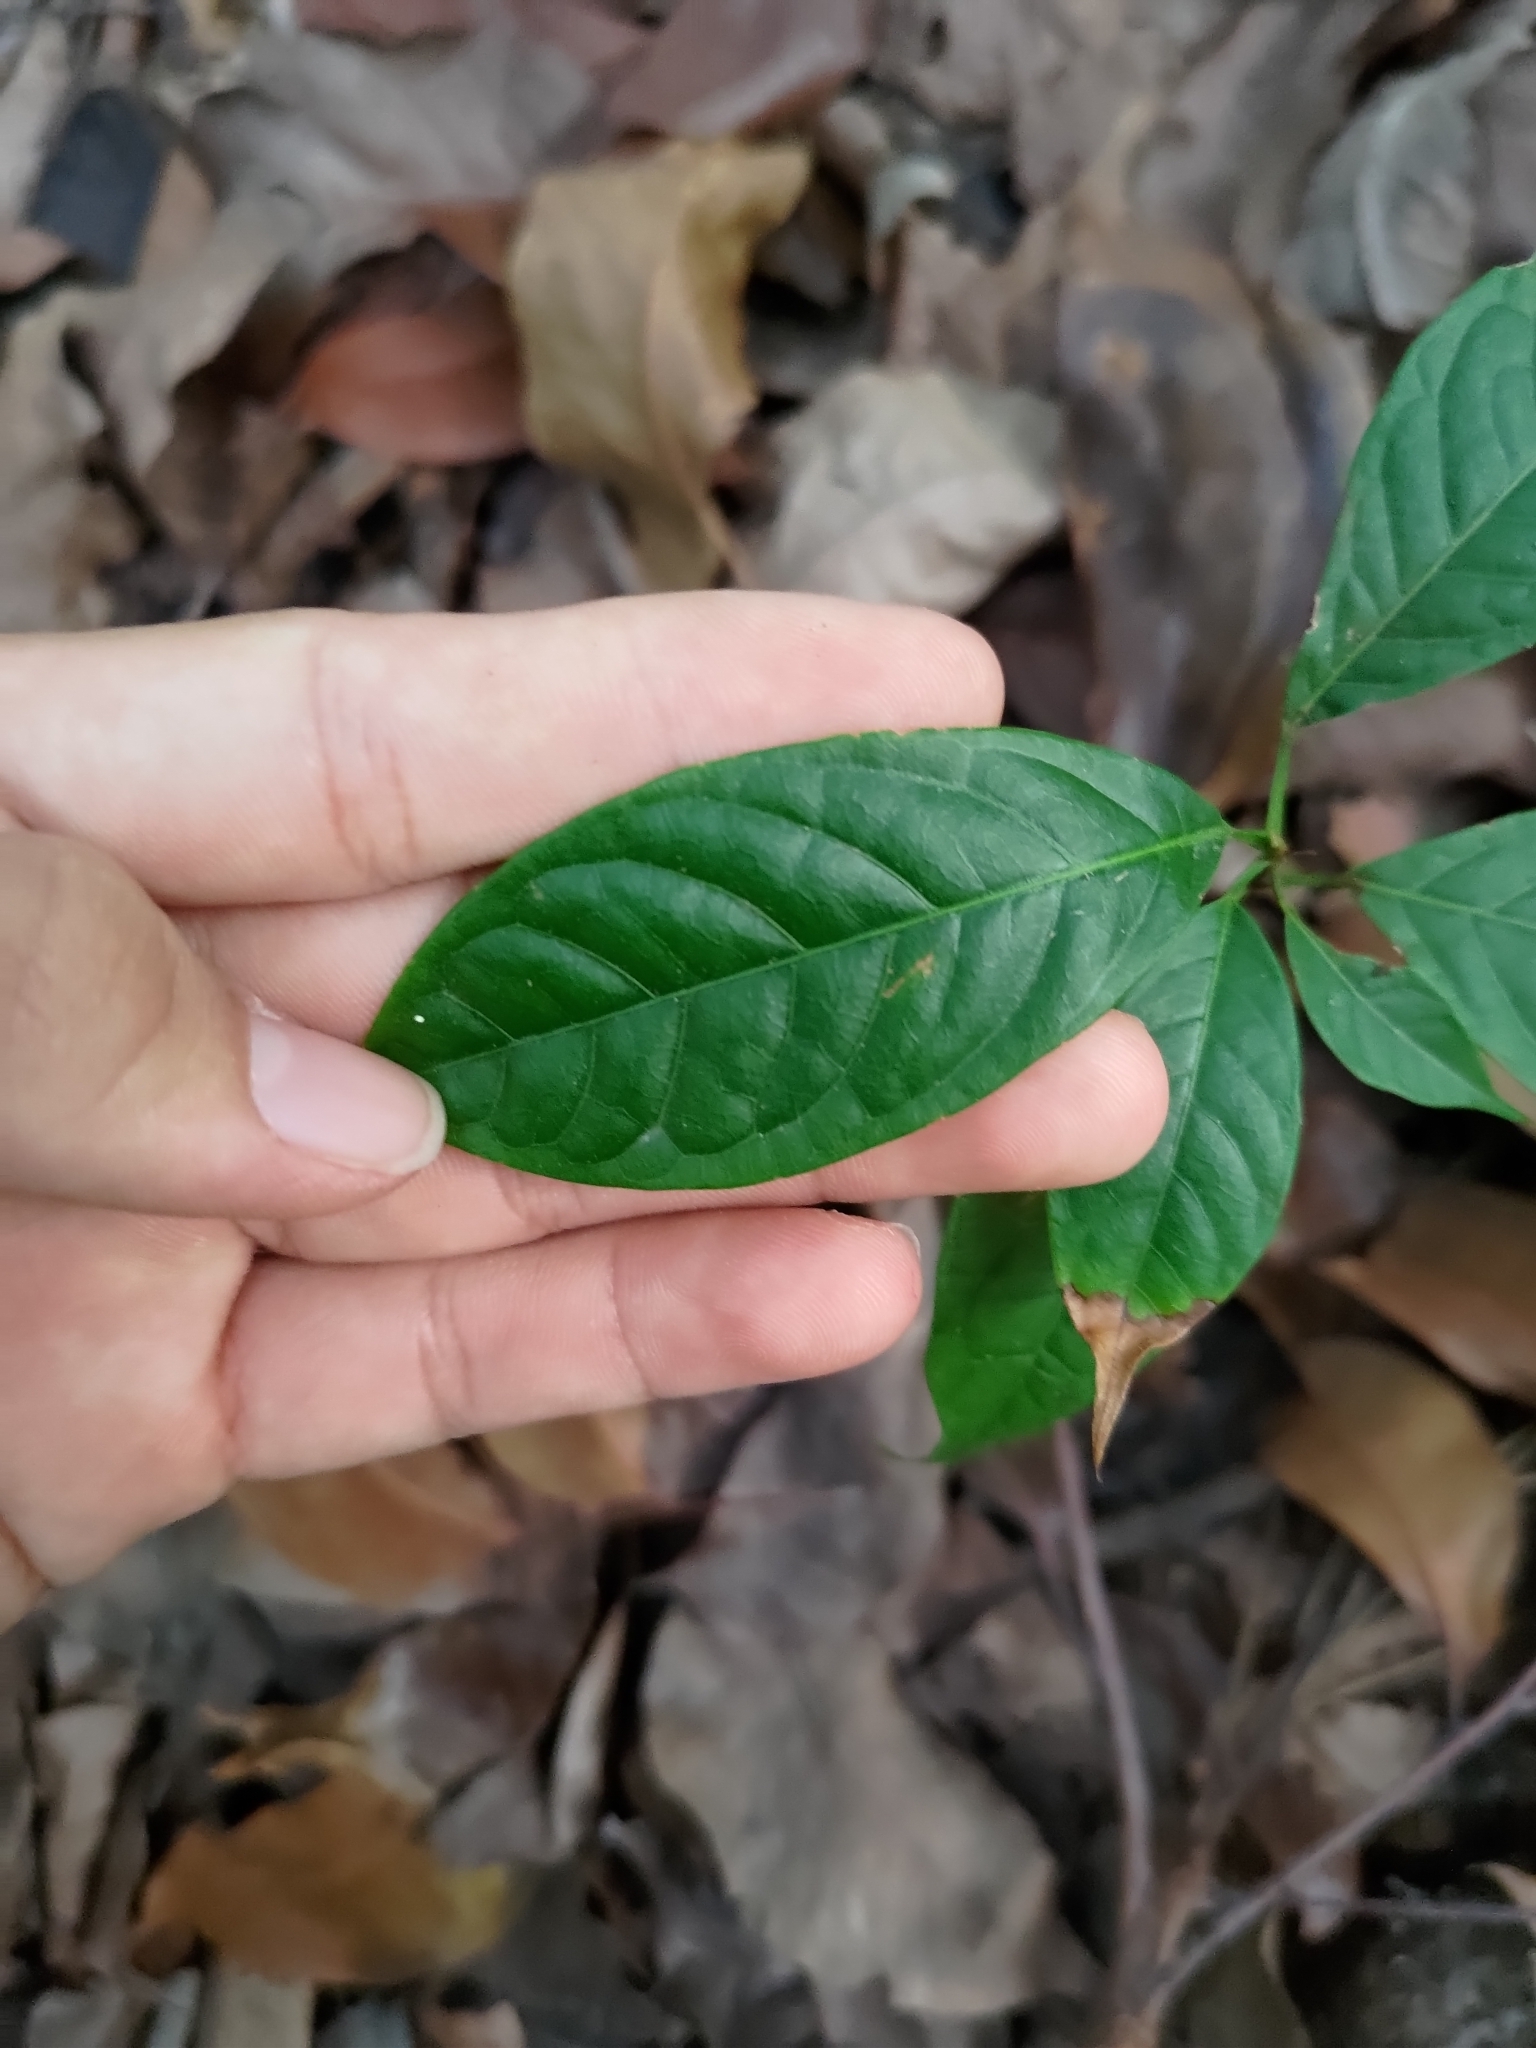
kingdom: Plantae
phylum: Tracheophyta
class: Magnoliopsida
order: Sapindales
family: Meliaceae
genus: Swietenia
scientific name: Swietenia macrophylla
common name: Honduras mahogany
